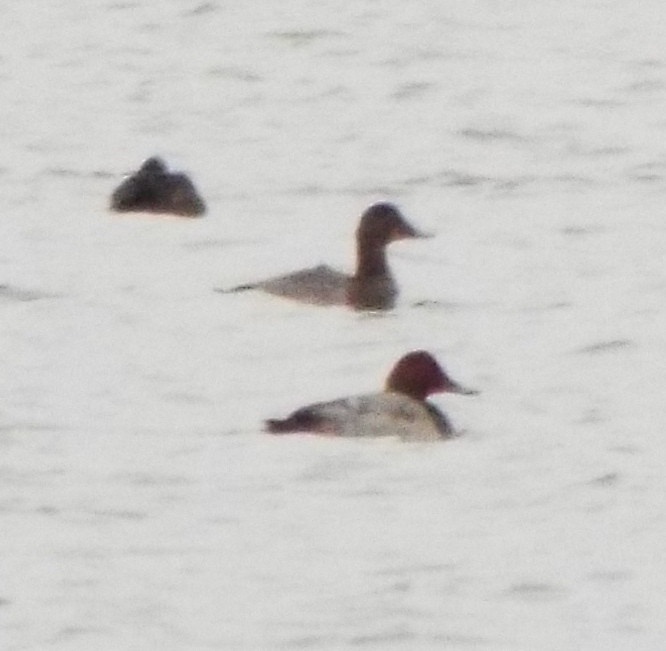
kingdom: Animalia
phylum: Chordata
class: Aves
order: Anseriformes
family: Anatidae
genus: Aythya
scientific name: Aythya ferina
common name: Common pochard
